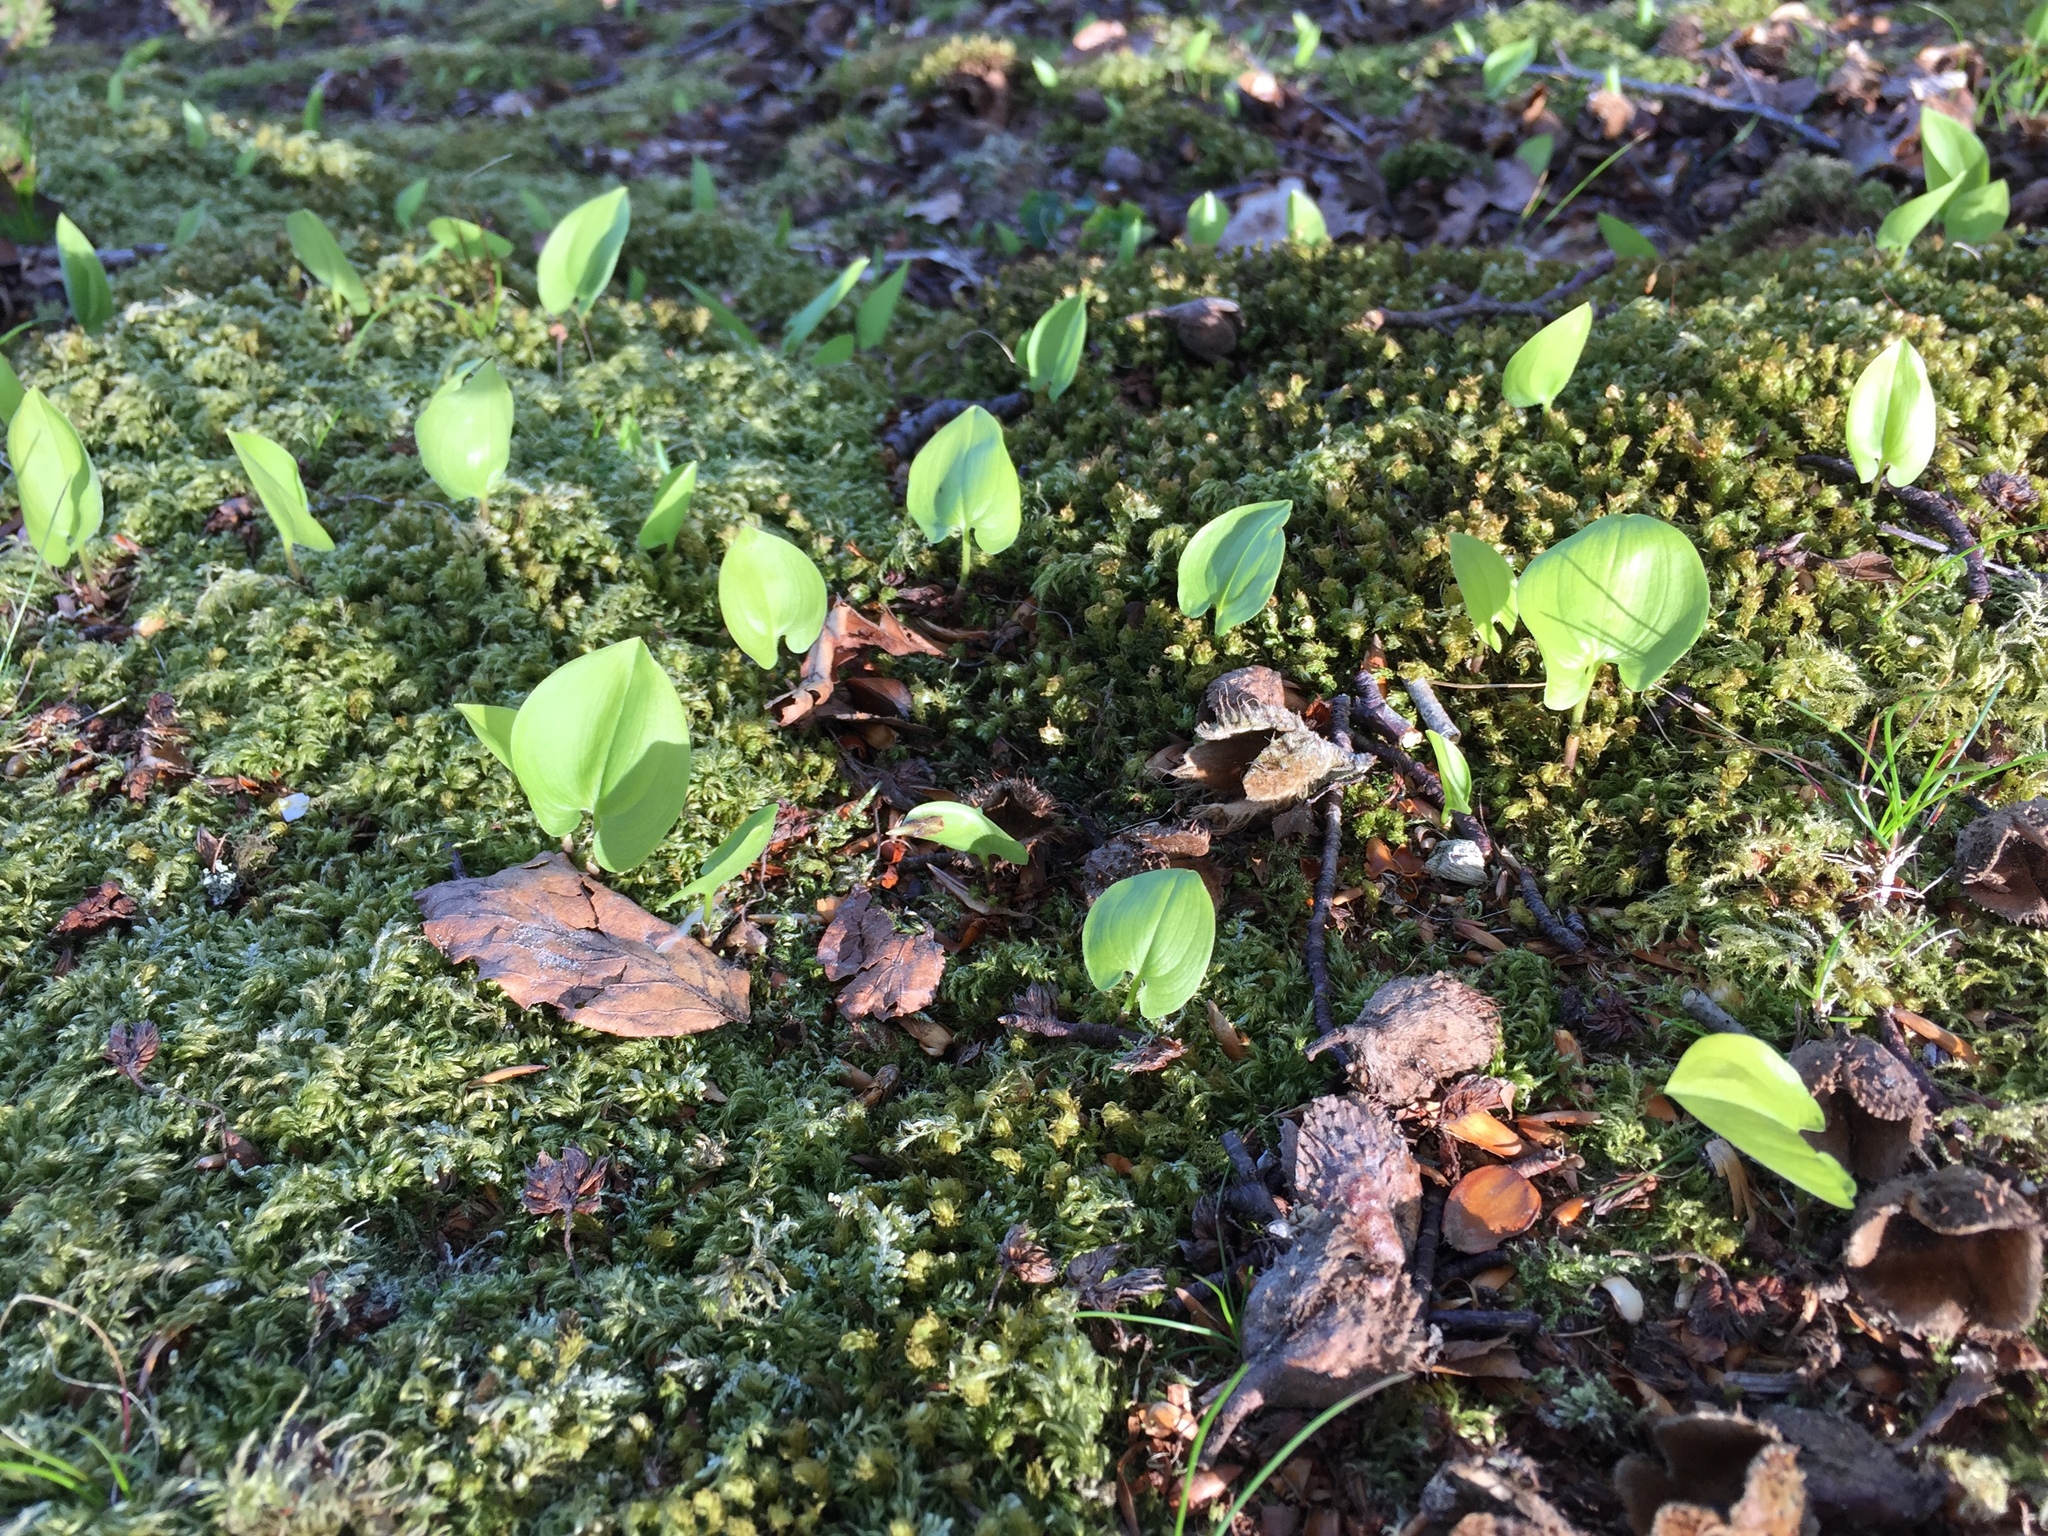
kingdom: Plantae
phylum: Tracheophyta
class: Liliopsida
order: Asparagales
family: Asparagaceae
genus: Maianthemum
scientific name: Maianthemum bifolium
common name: May lily
